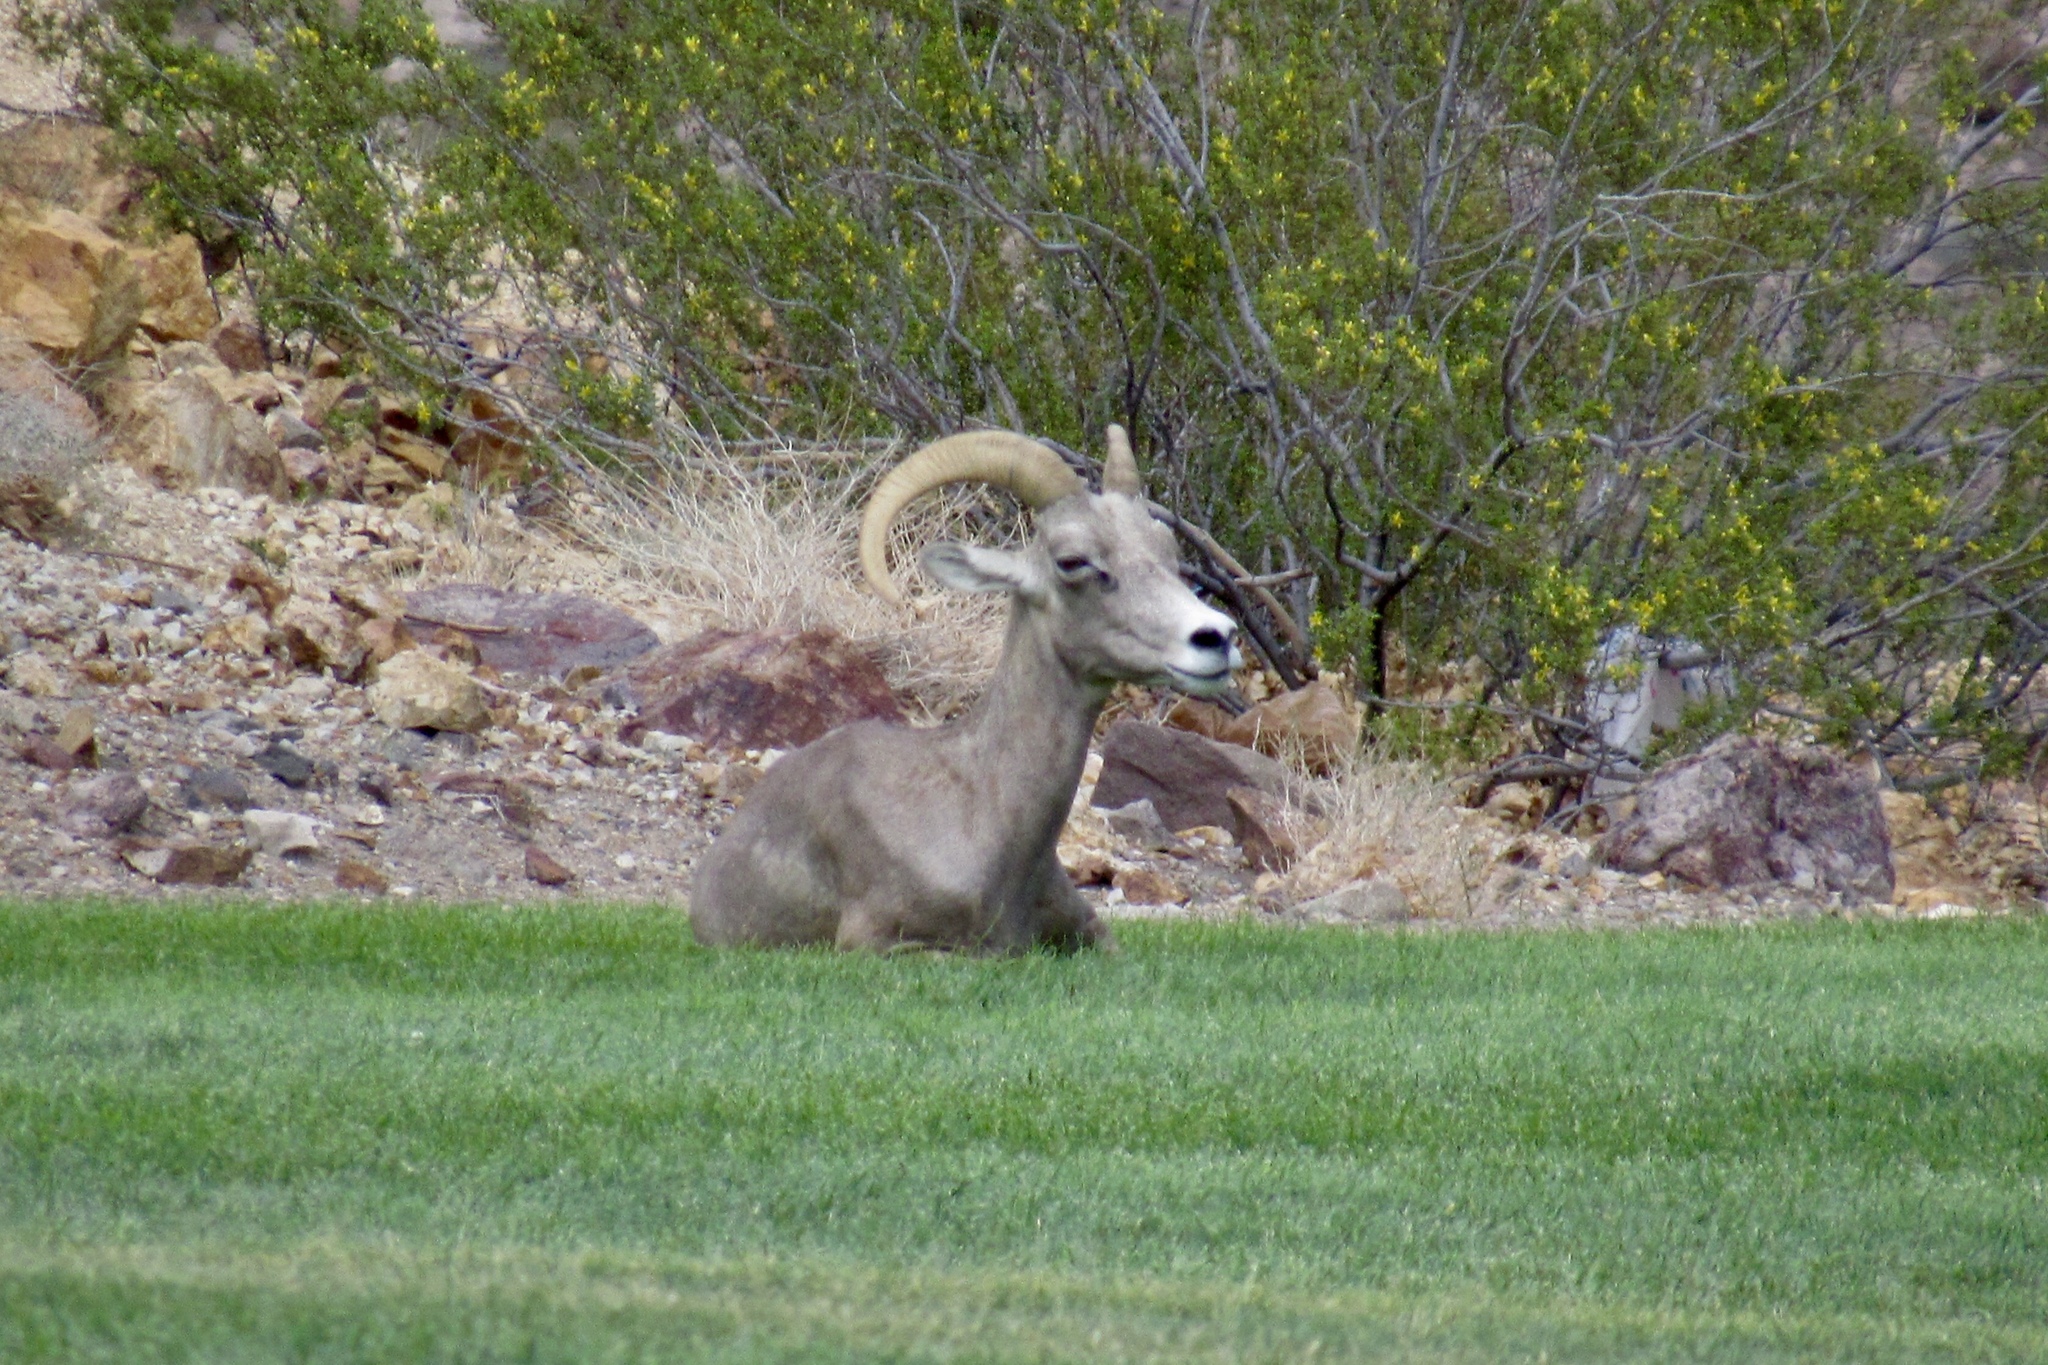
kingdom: Animalia
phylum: Chordata
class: Mammalia
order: Artiodactyla
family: Bovidae
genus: Ovis
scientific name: Ovis canadensis
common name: Bighorn sheep
